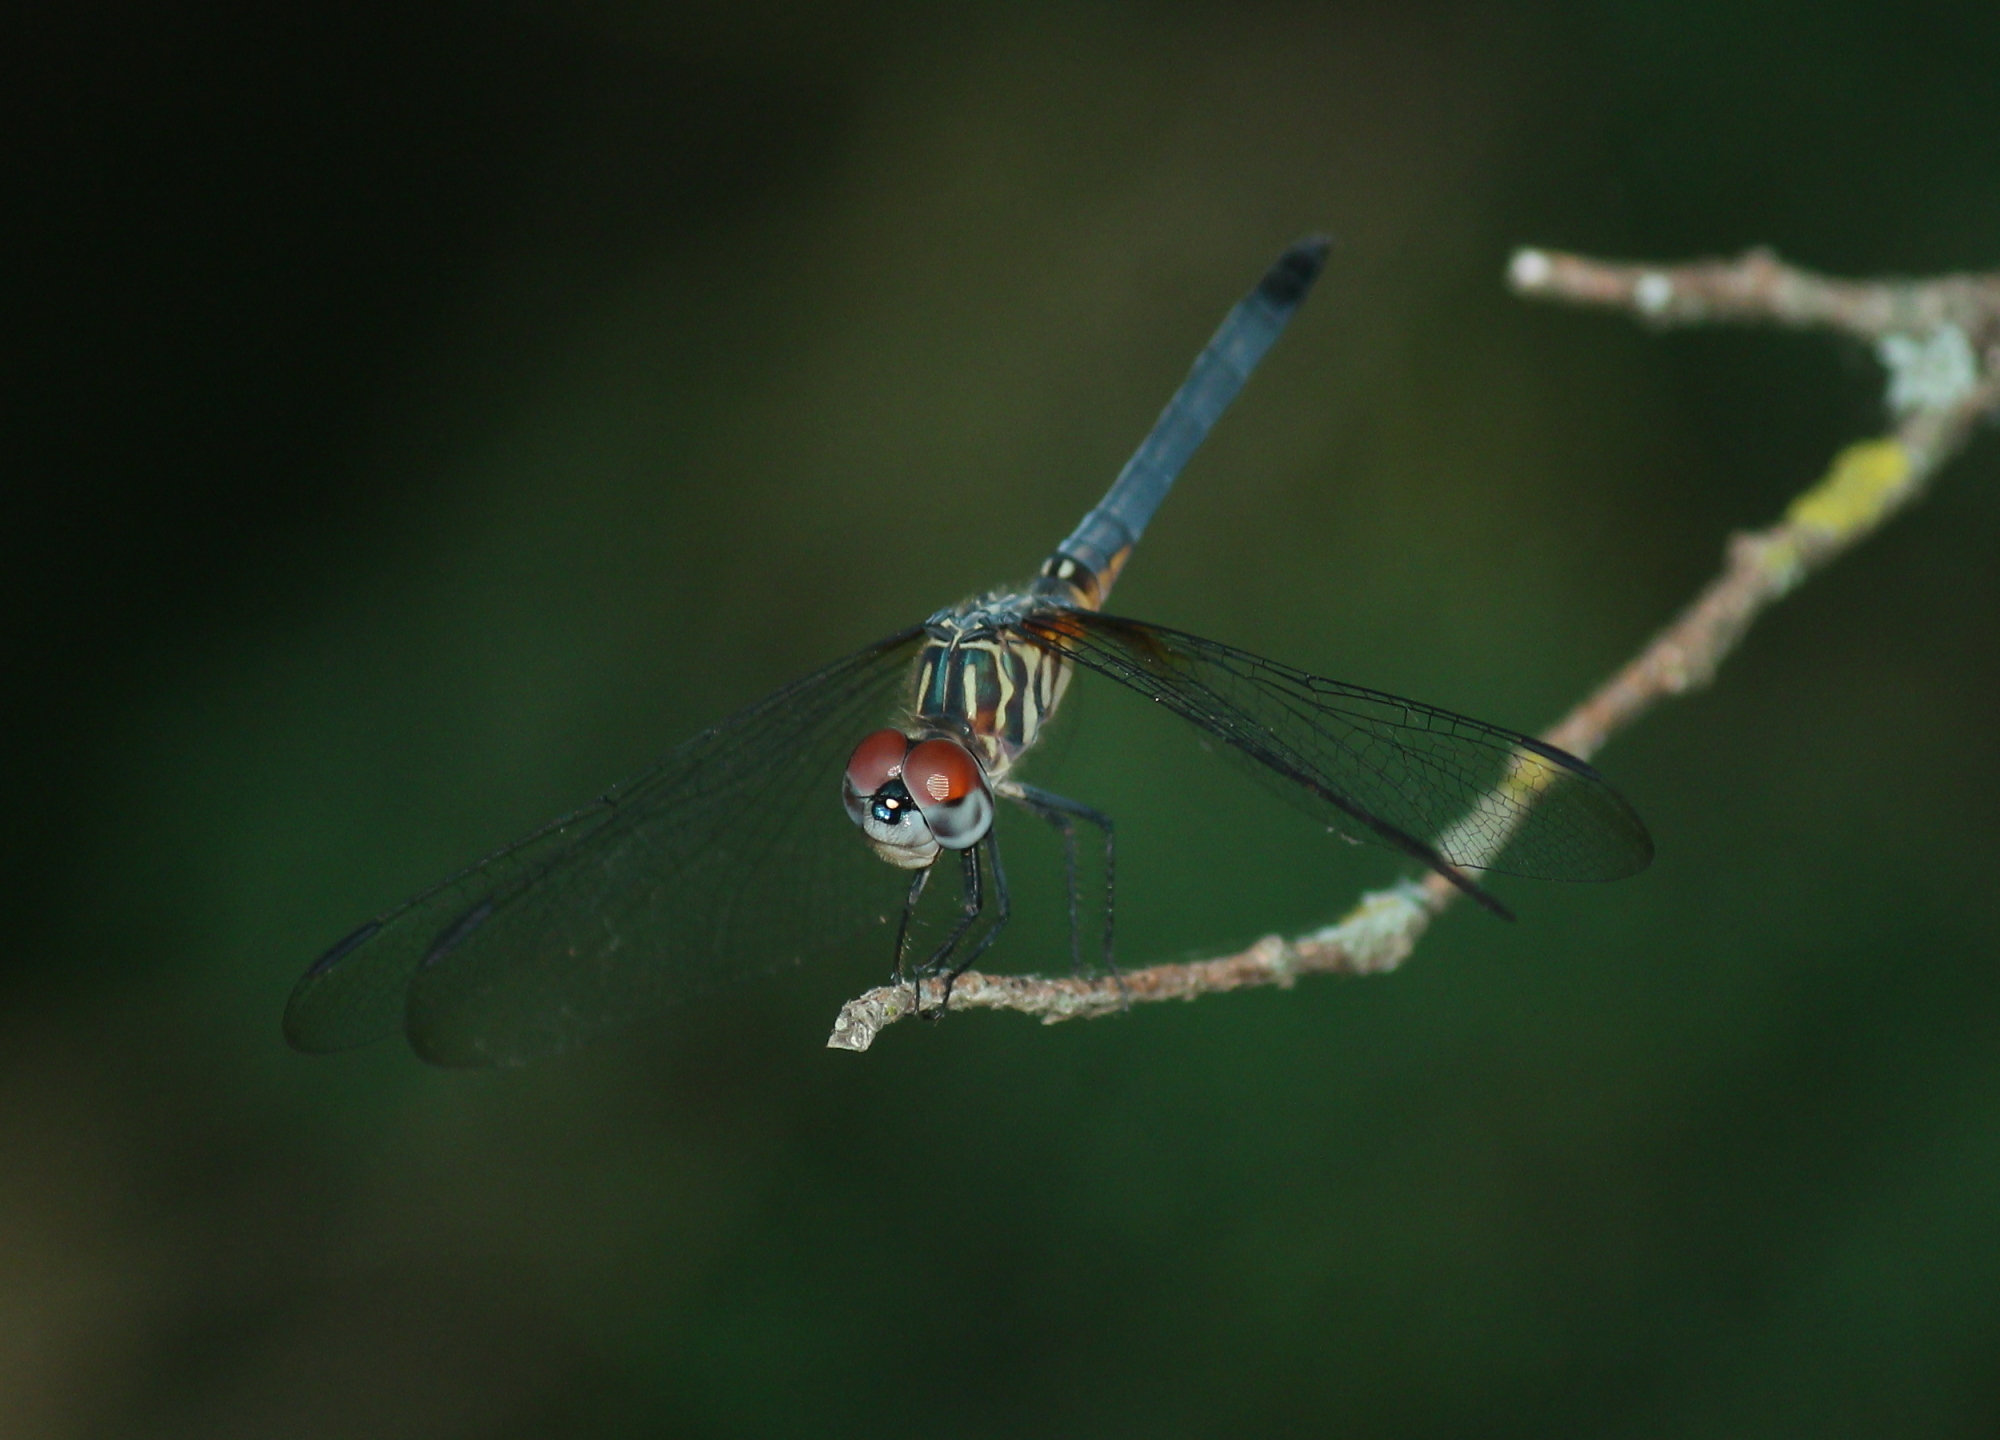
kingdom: Animalia
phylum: Arthropoda
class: Insecta
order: Odonata
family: Libellulidae
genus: Pachydiplax
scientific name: Pachydiplax longipennis
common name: Blue dasher
